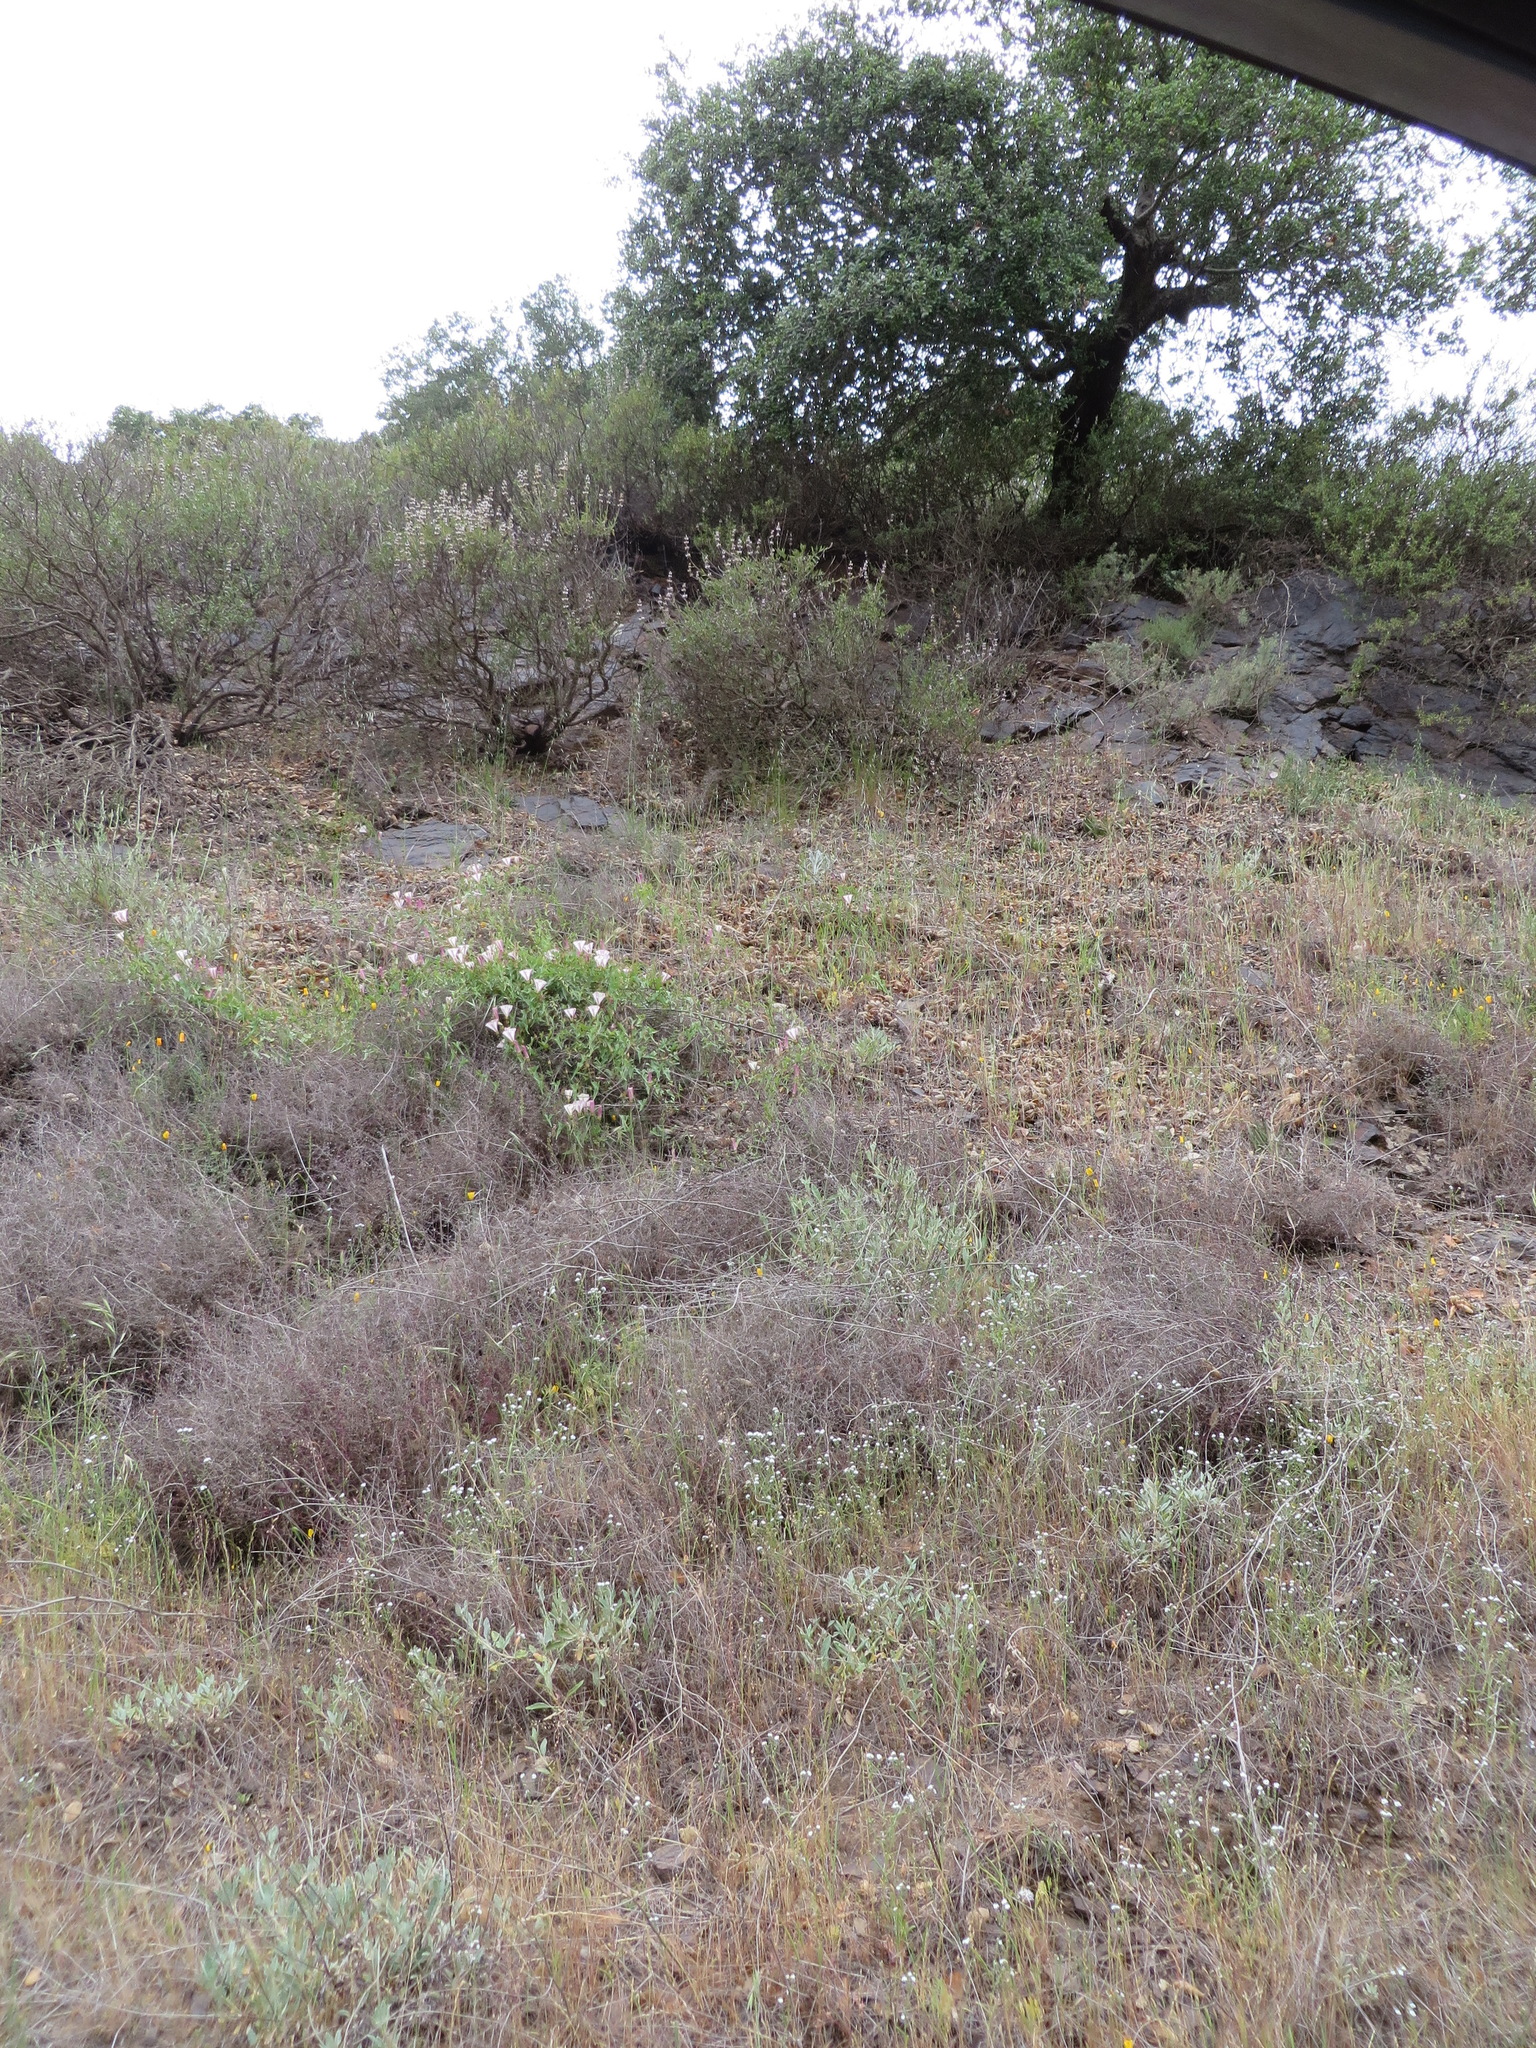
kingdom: Plantae
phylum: Tracheophyta
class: Magnoliopsida
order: Ranunculales
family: Papaveraceae
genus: Eschscholzia
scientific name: Eschscholzia caespitosa
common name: Tufted california-poppy
